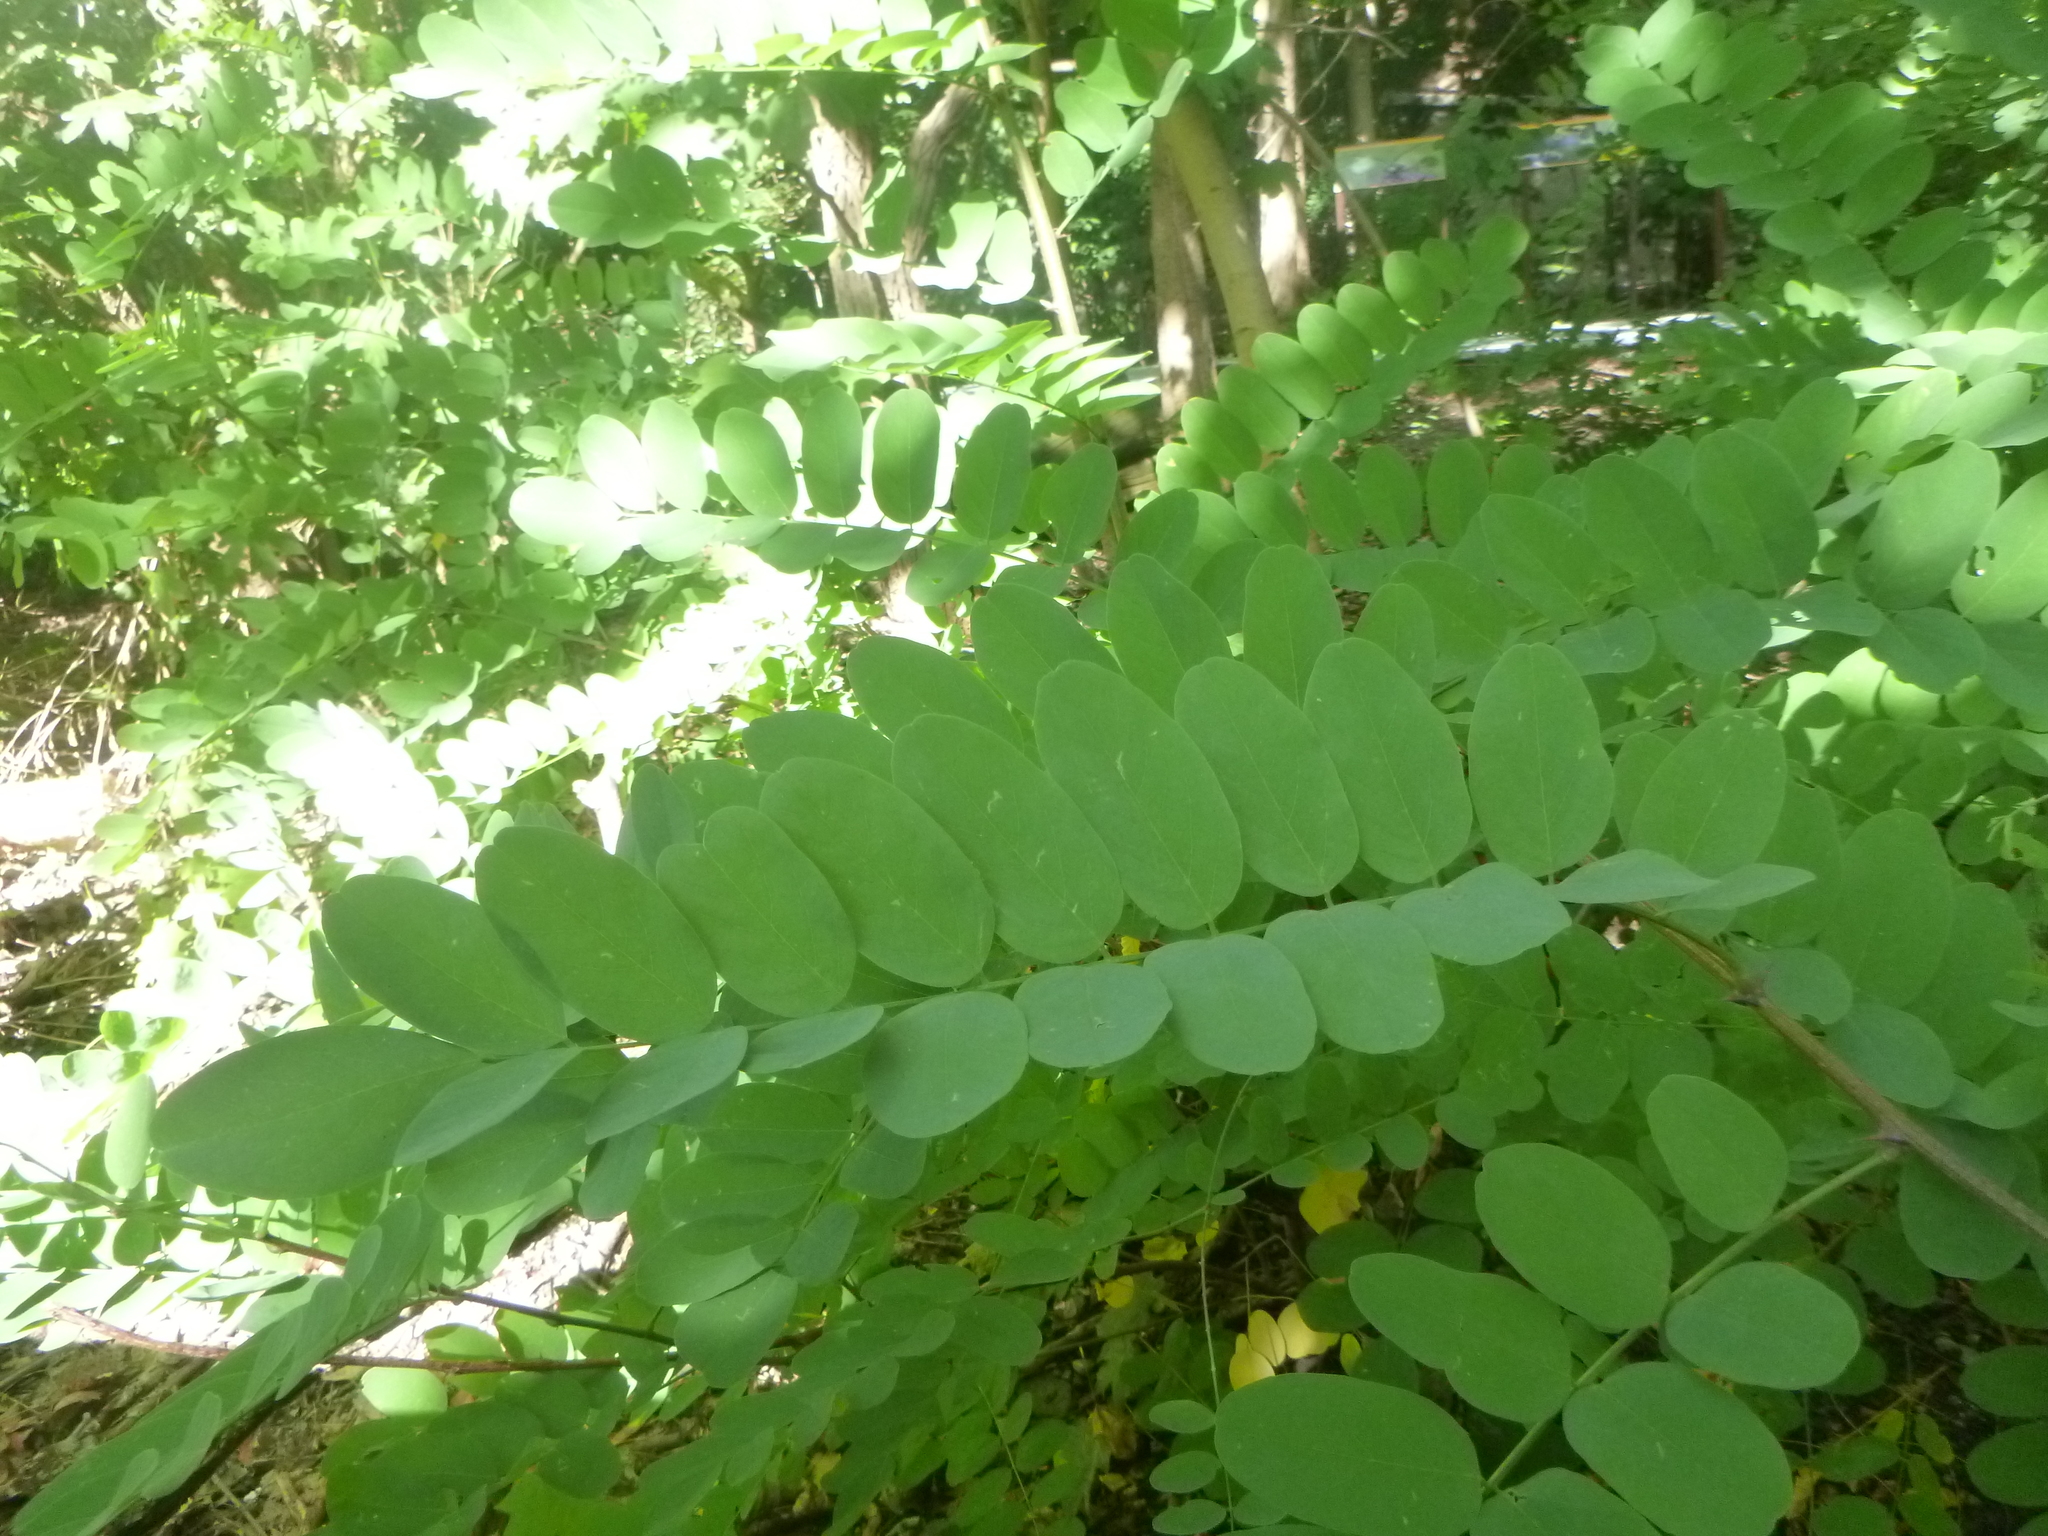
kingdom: Plantae
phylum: Tracheophyta
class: Magnoliopsida
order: Fabales
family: Fabaceae
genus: Robinia
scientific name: Robinia pseudoacacia
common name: Black locust
